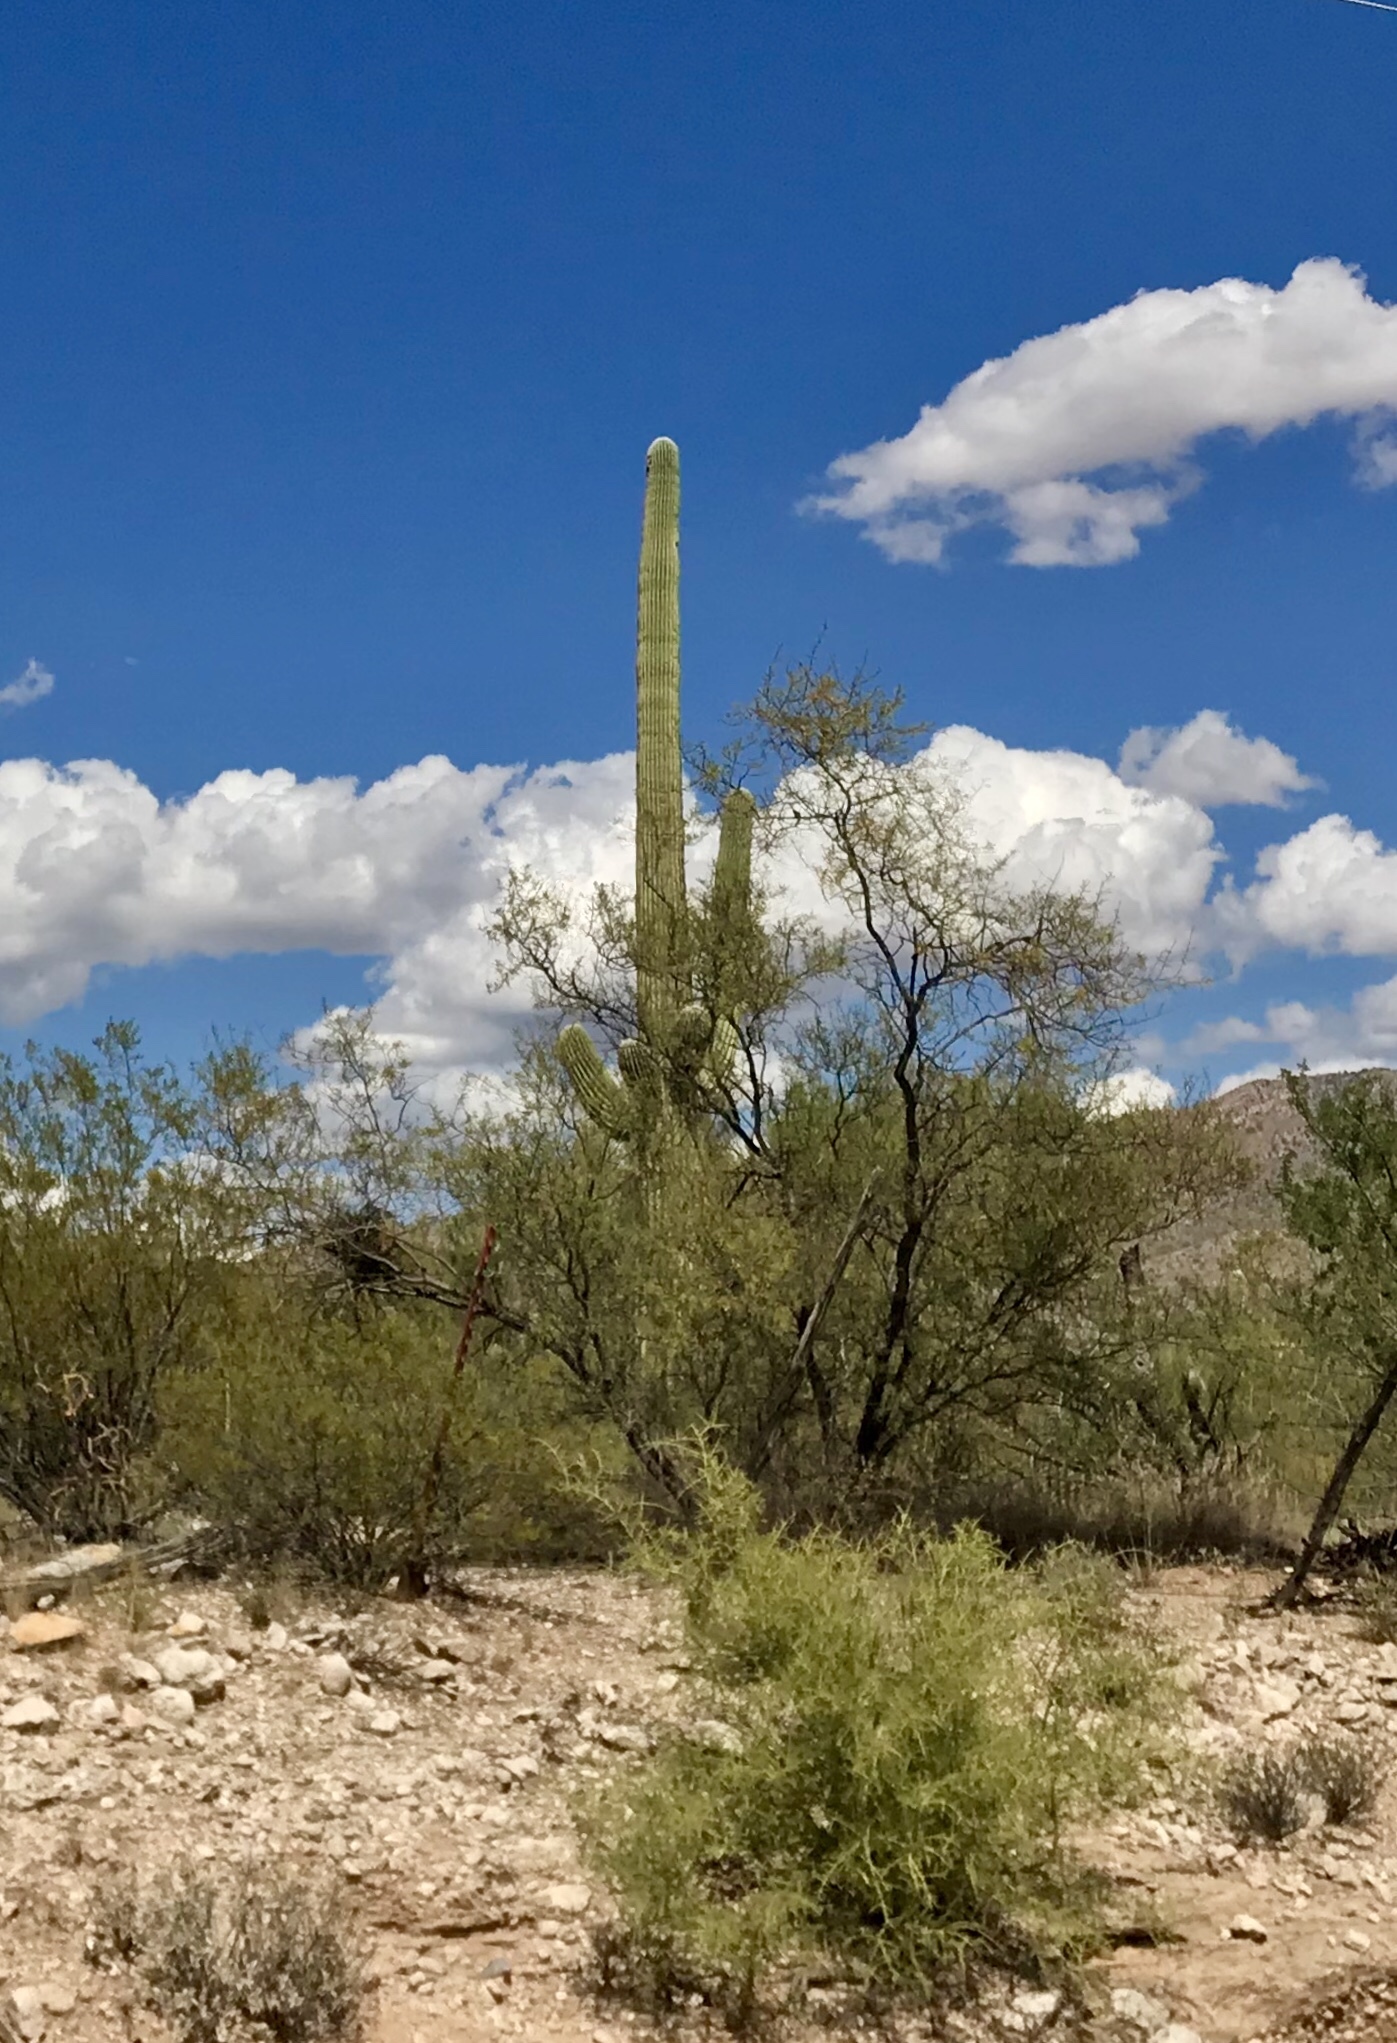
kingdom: Plantae
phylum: Tracheophyta
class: Magnoliopsida
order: Caryophyllales
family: Cactaceae
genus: Carnegiea
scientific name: Carnegiea gigantea
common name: Saguaro
